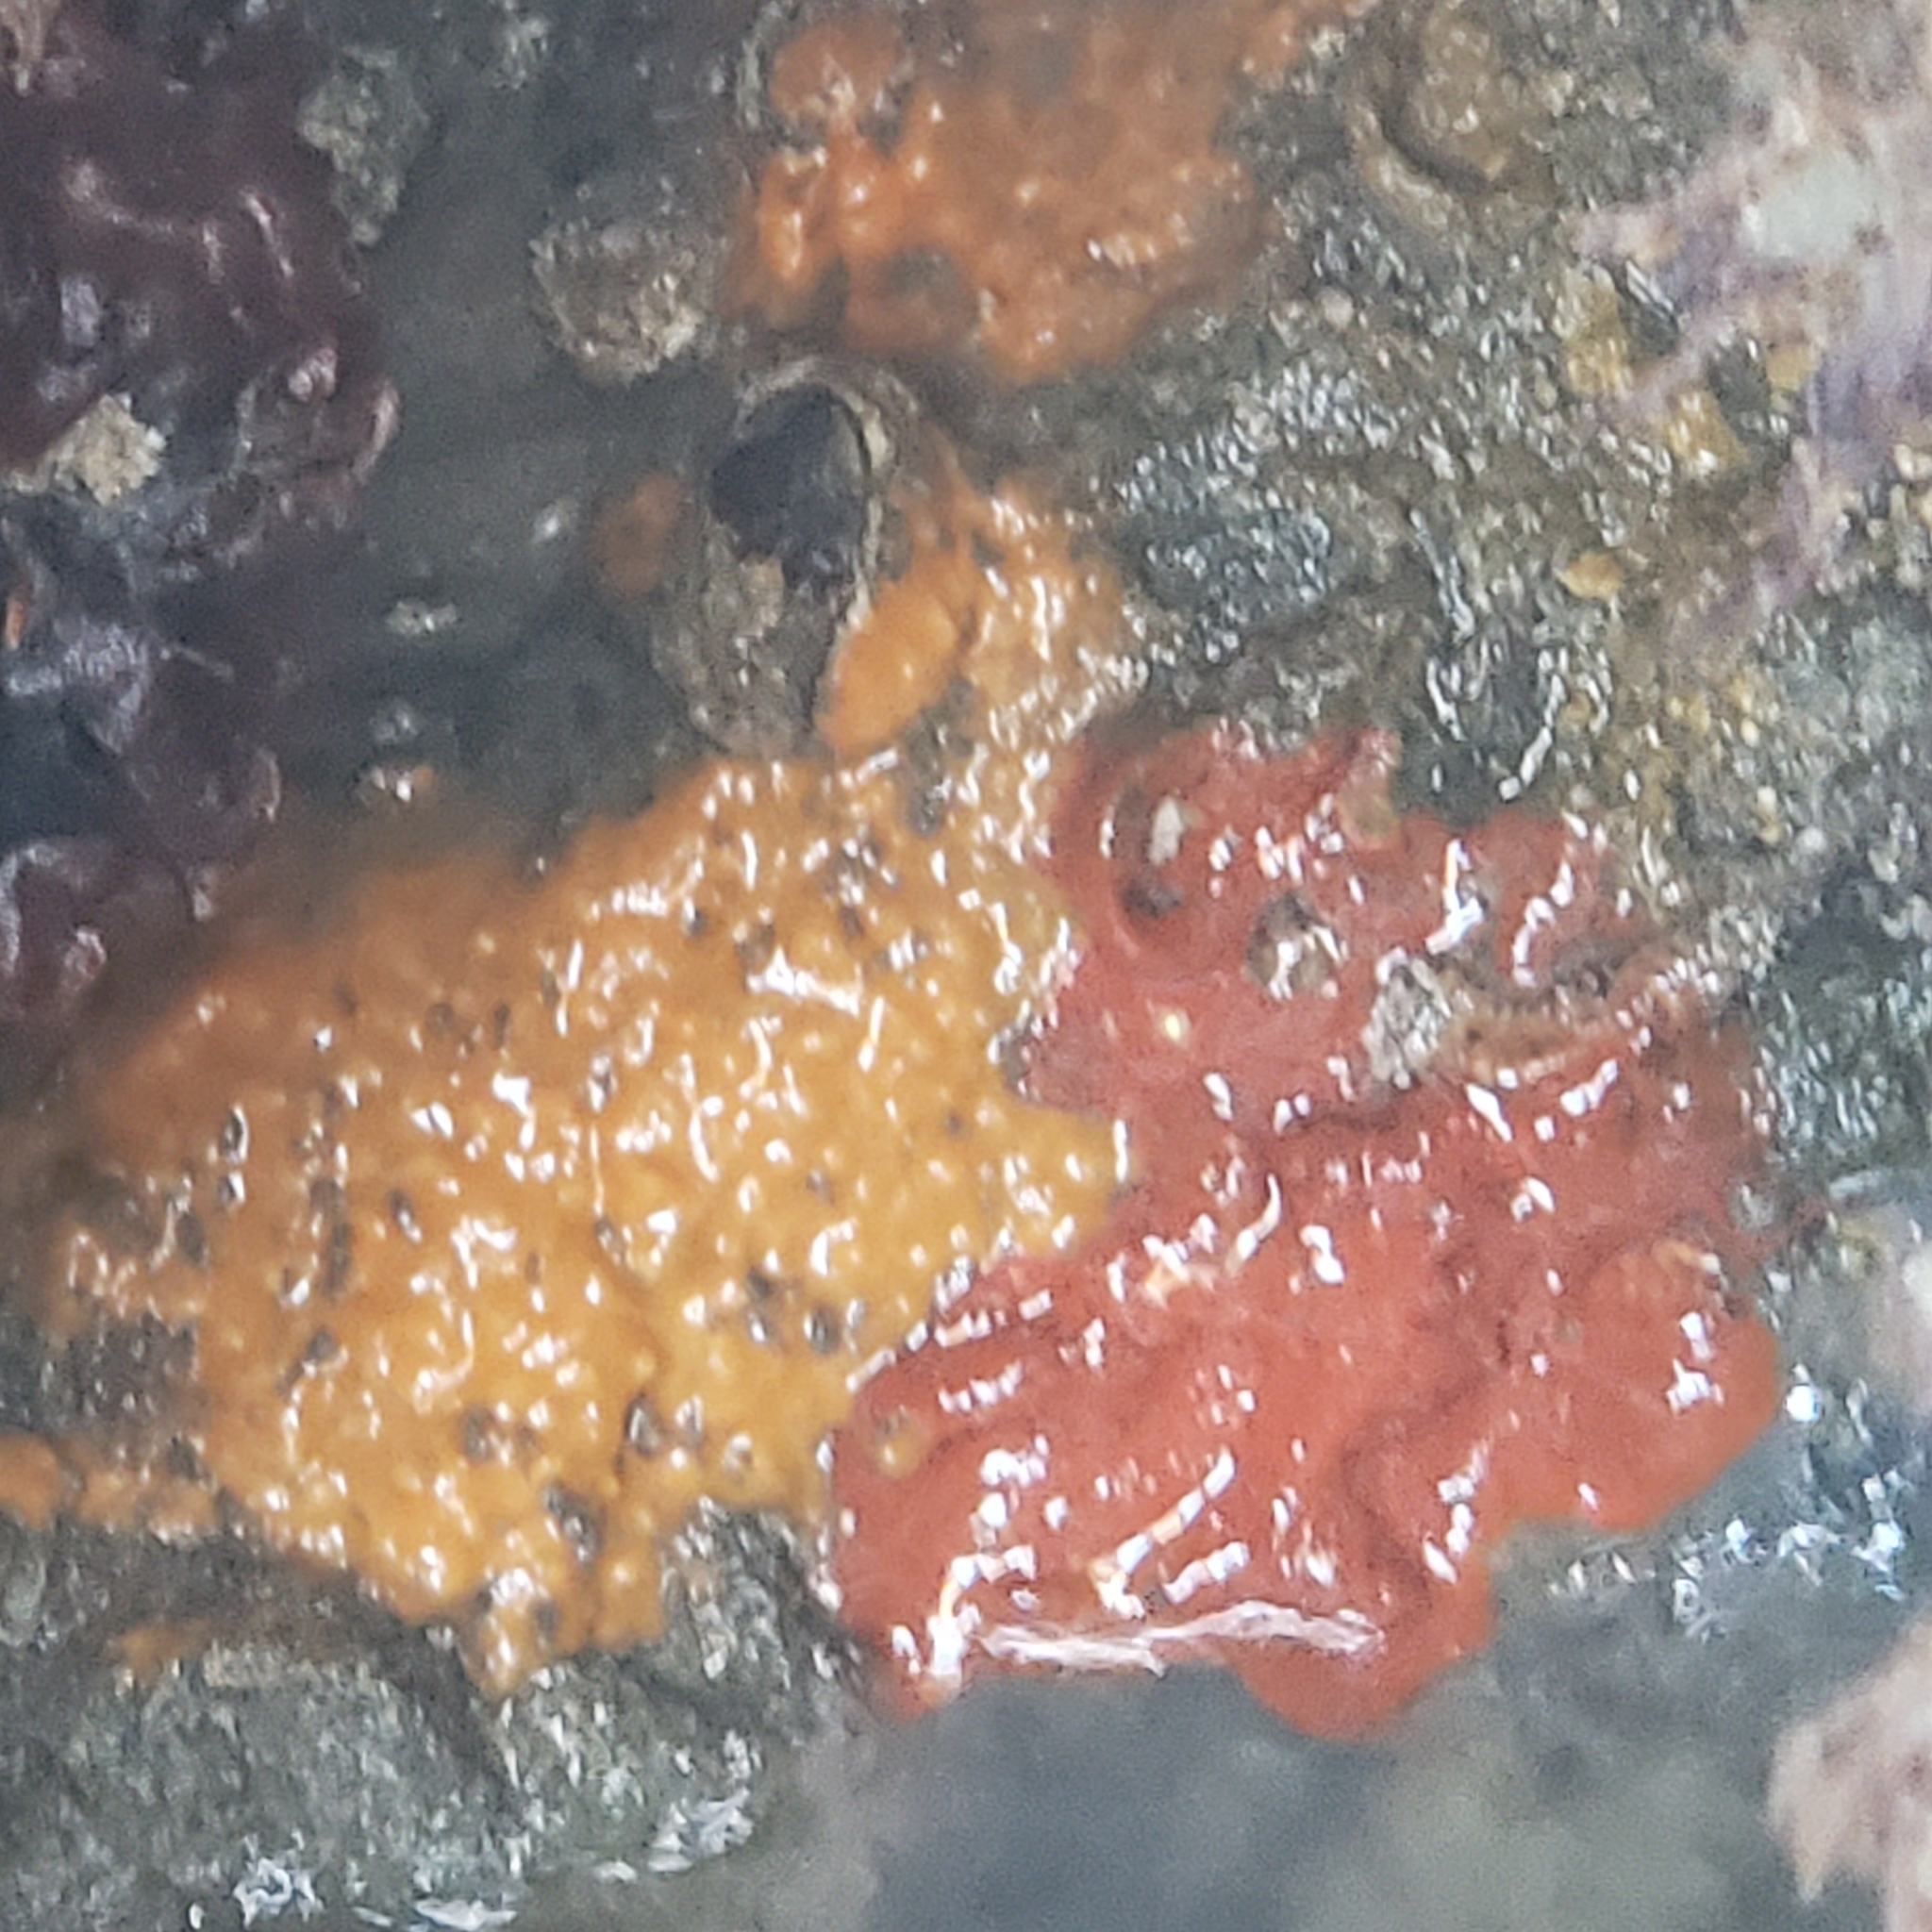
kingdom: Animalia
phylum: Chordata
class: Ascidiacea
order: Stolidobranchia
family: Styelidae
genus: Botrylloides
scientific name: Botrylloides violaceus
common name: Colonial sea squirt
